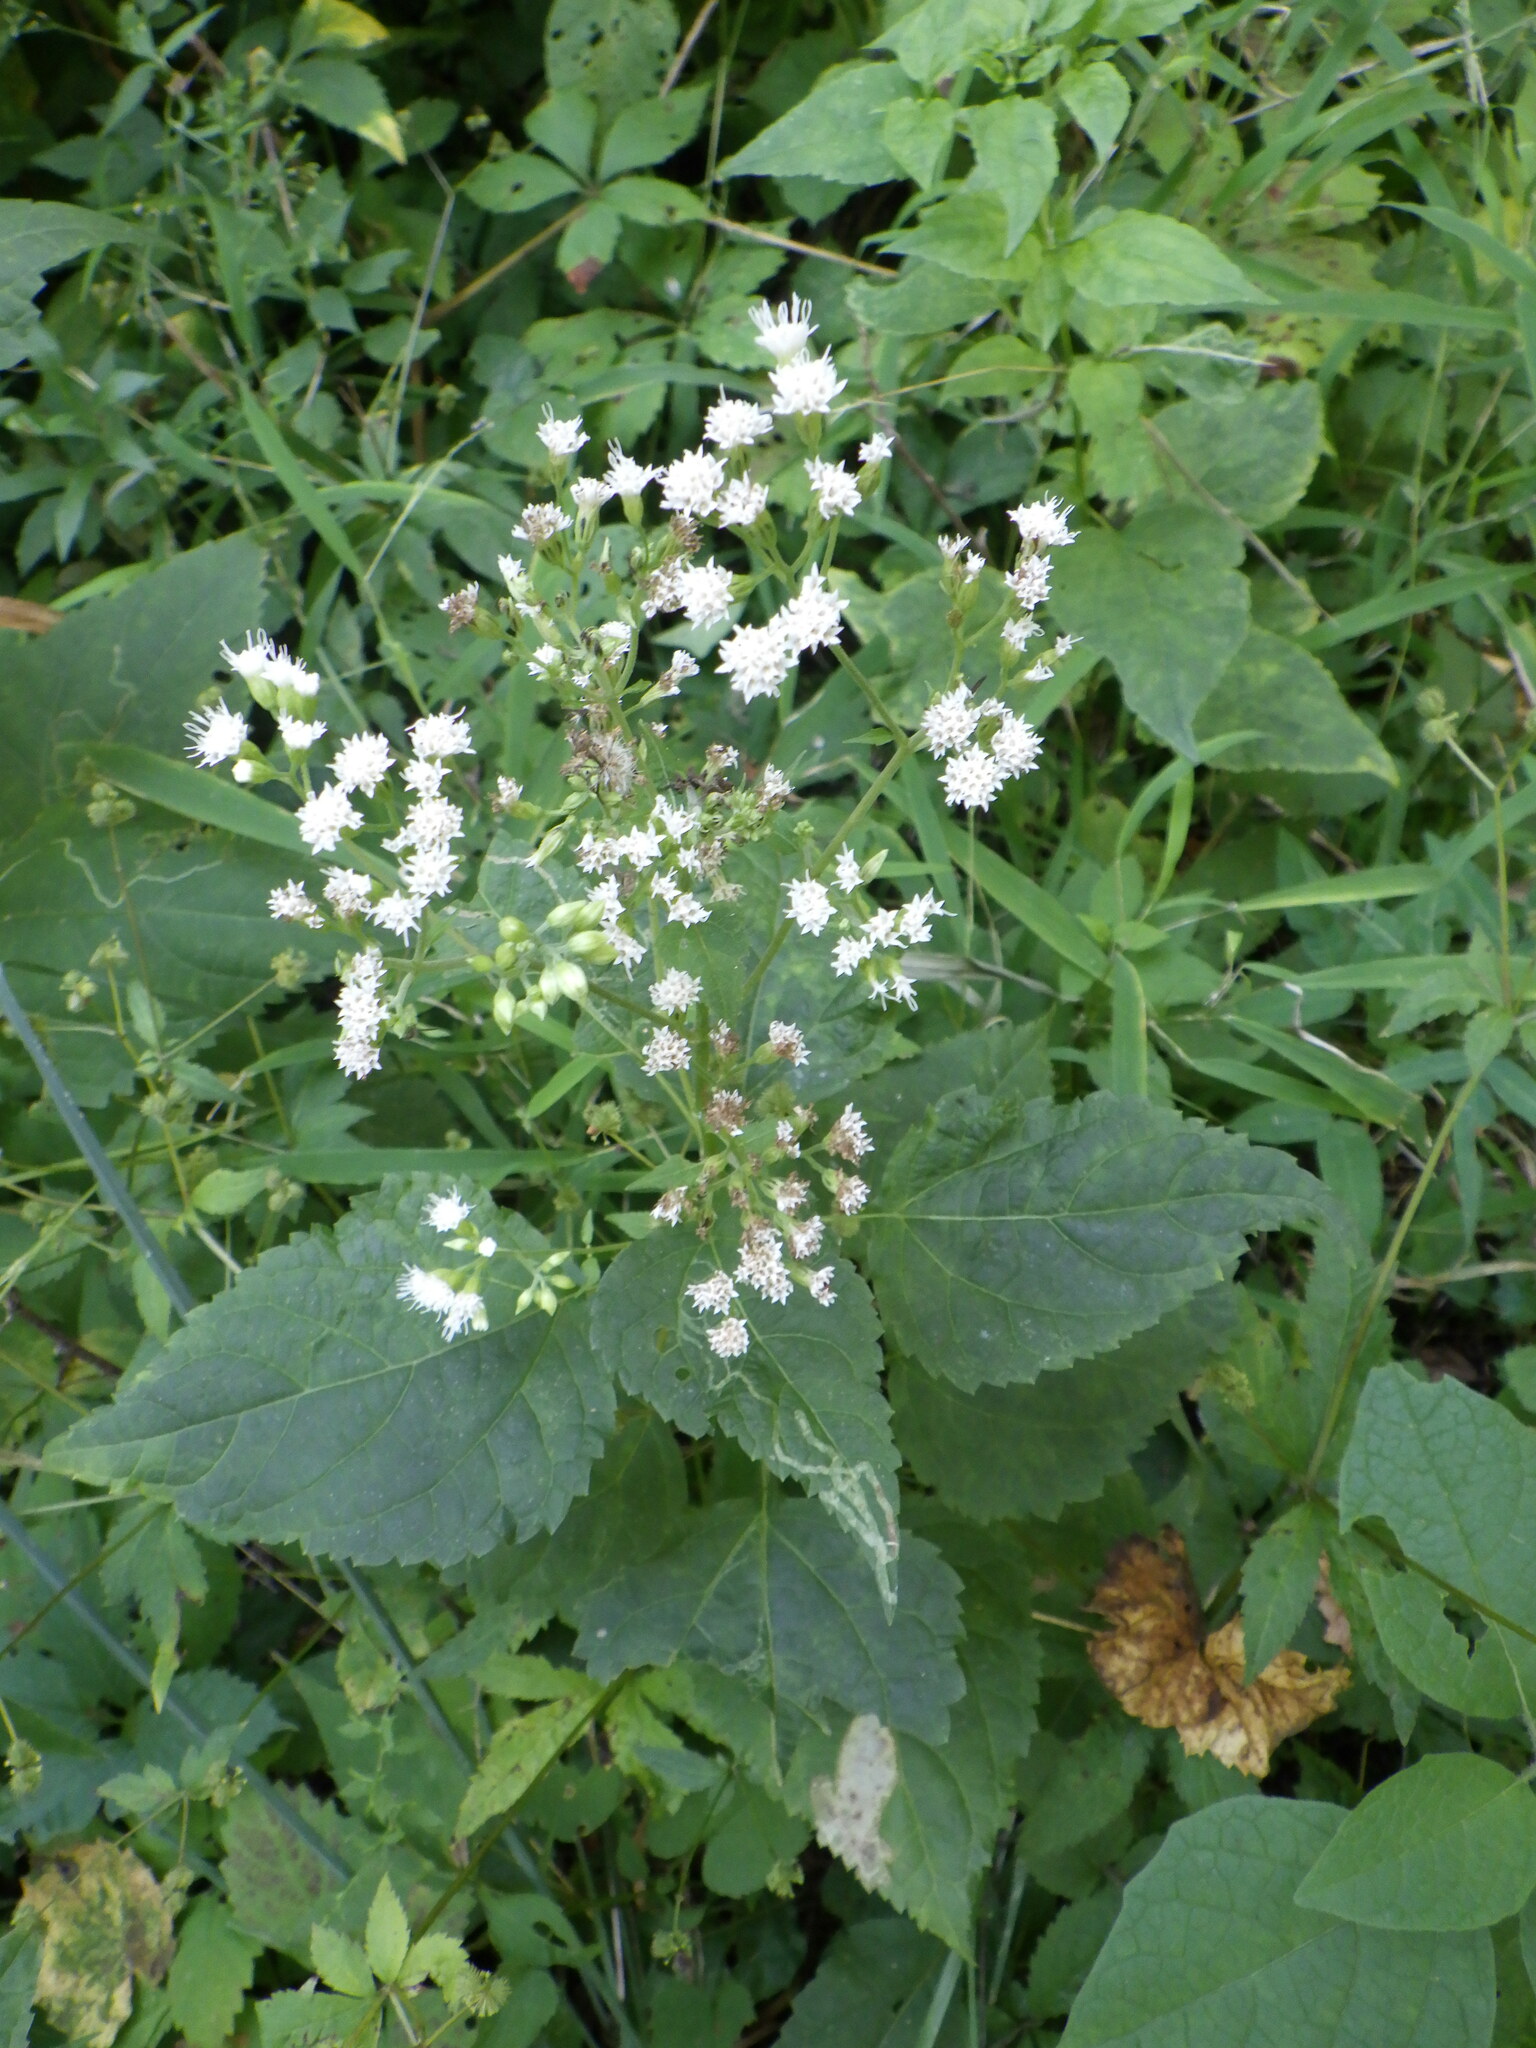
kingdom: Plantae
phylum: Tracheophyta
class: Magnoliopsida
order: Asterales
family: Asteraceae
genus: Ageratina
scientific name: Ageratina altissima
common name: White snakeroot
